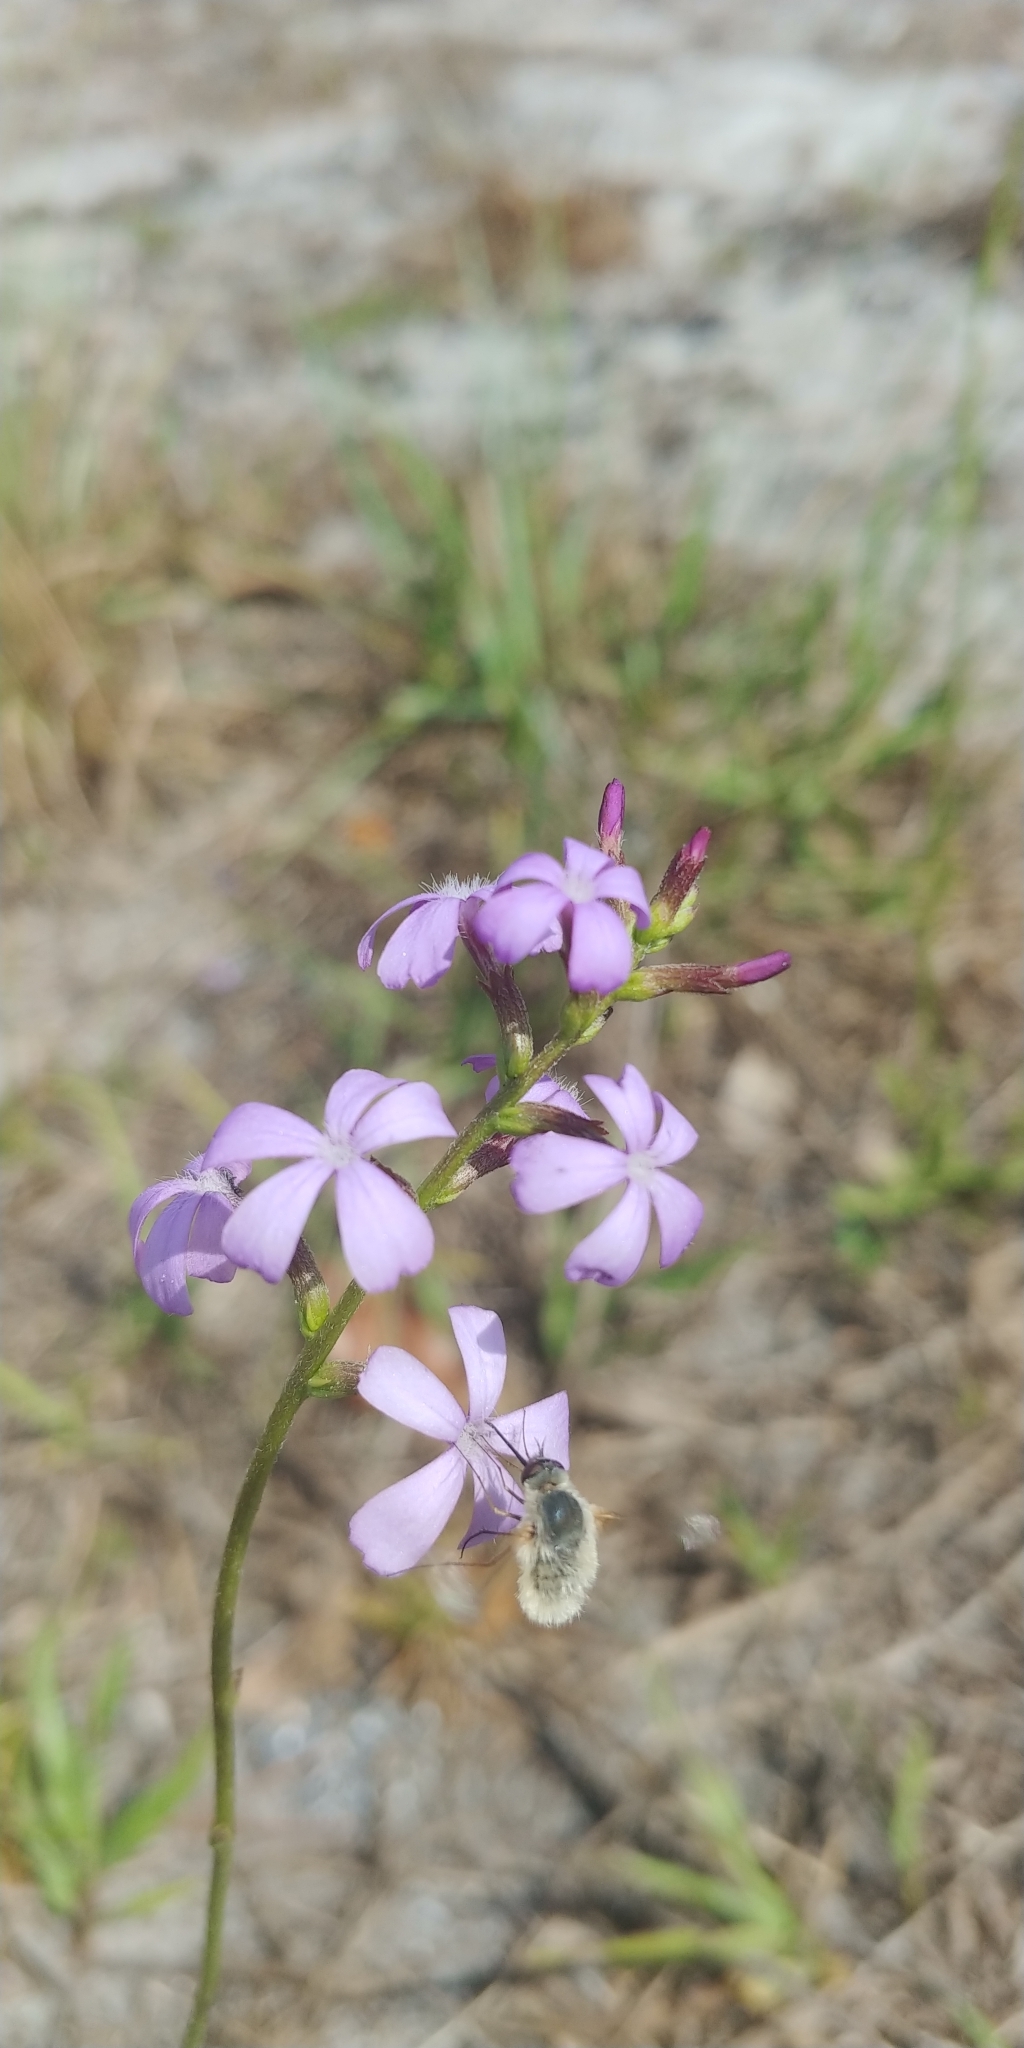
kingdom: Plantae
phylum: Tracheophyta
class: Magnoliopsida
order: Lamiales
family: Orobanchaceae
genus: Buchnera
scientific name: Buchnera floridana
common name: Florida bluehearts
